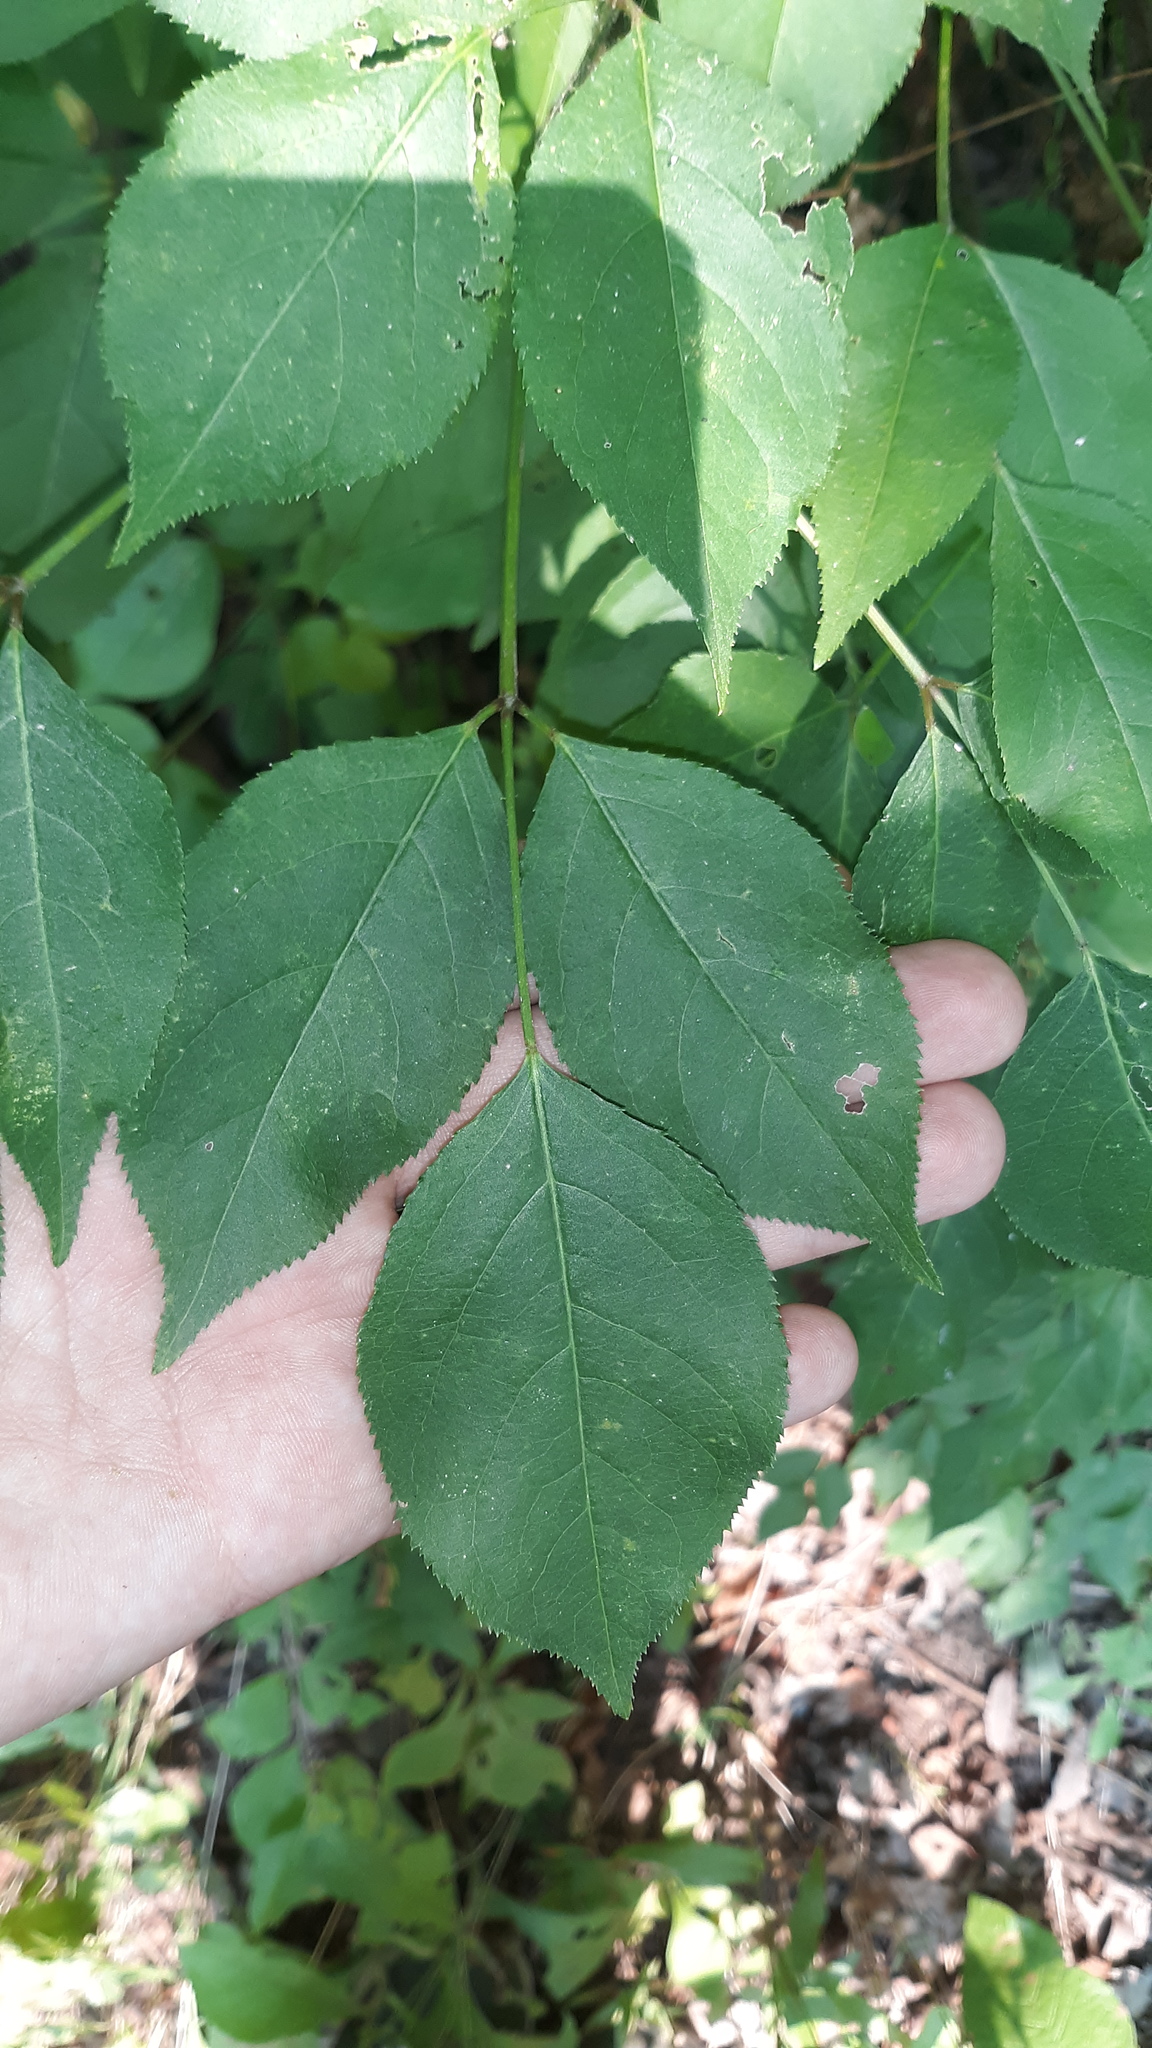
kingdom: Plantae
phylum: Tracheophyta
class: Magnoliopsida
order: Crossosomatales
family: Staphyleaceae
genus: Staphylea
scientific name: Staphylea trifolia
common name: American bladdernut
